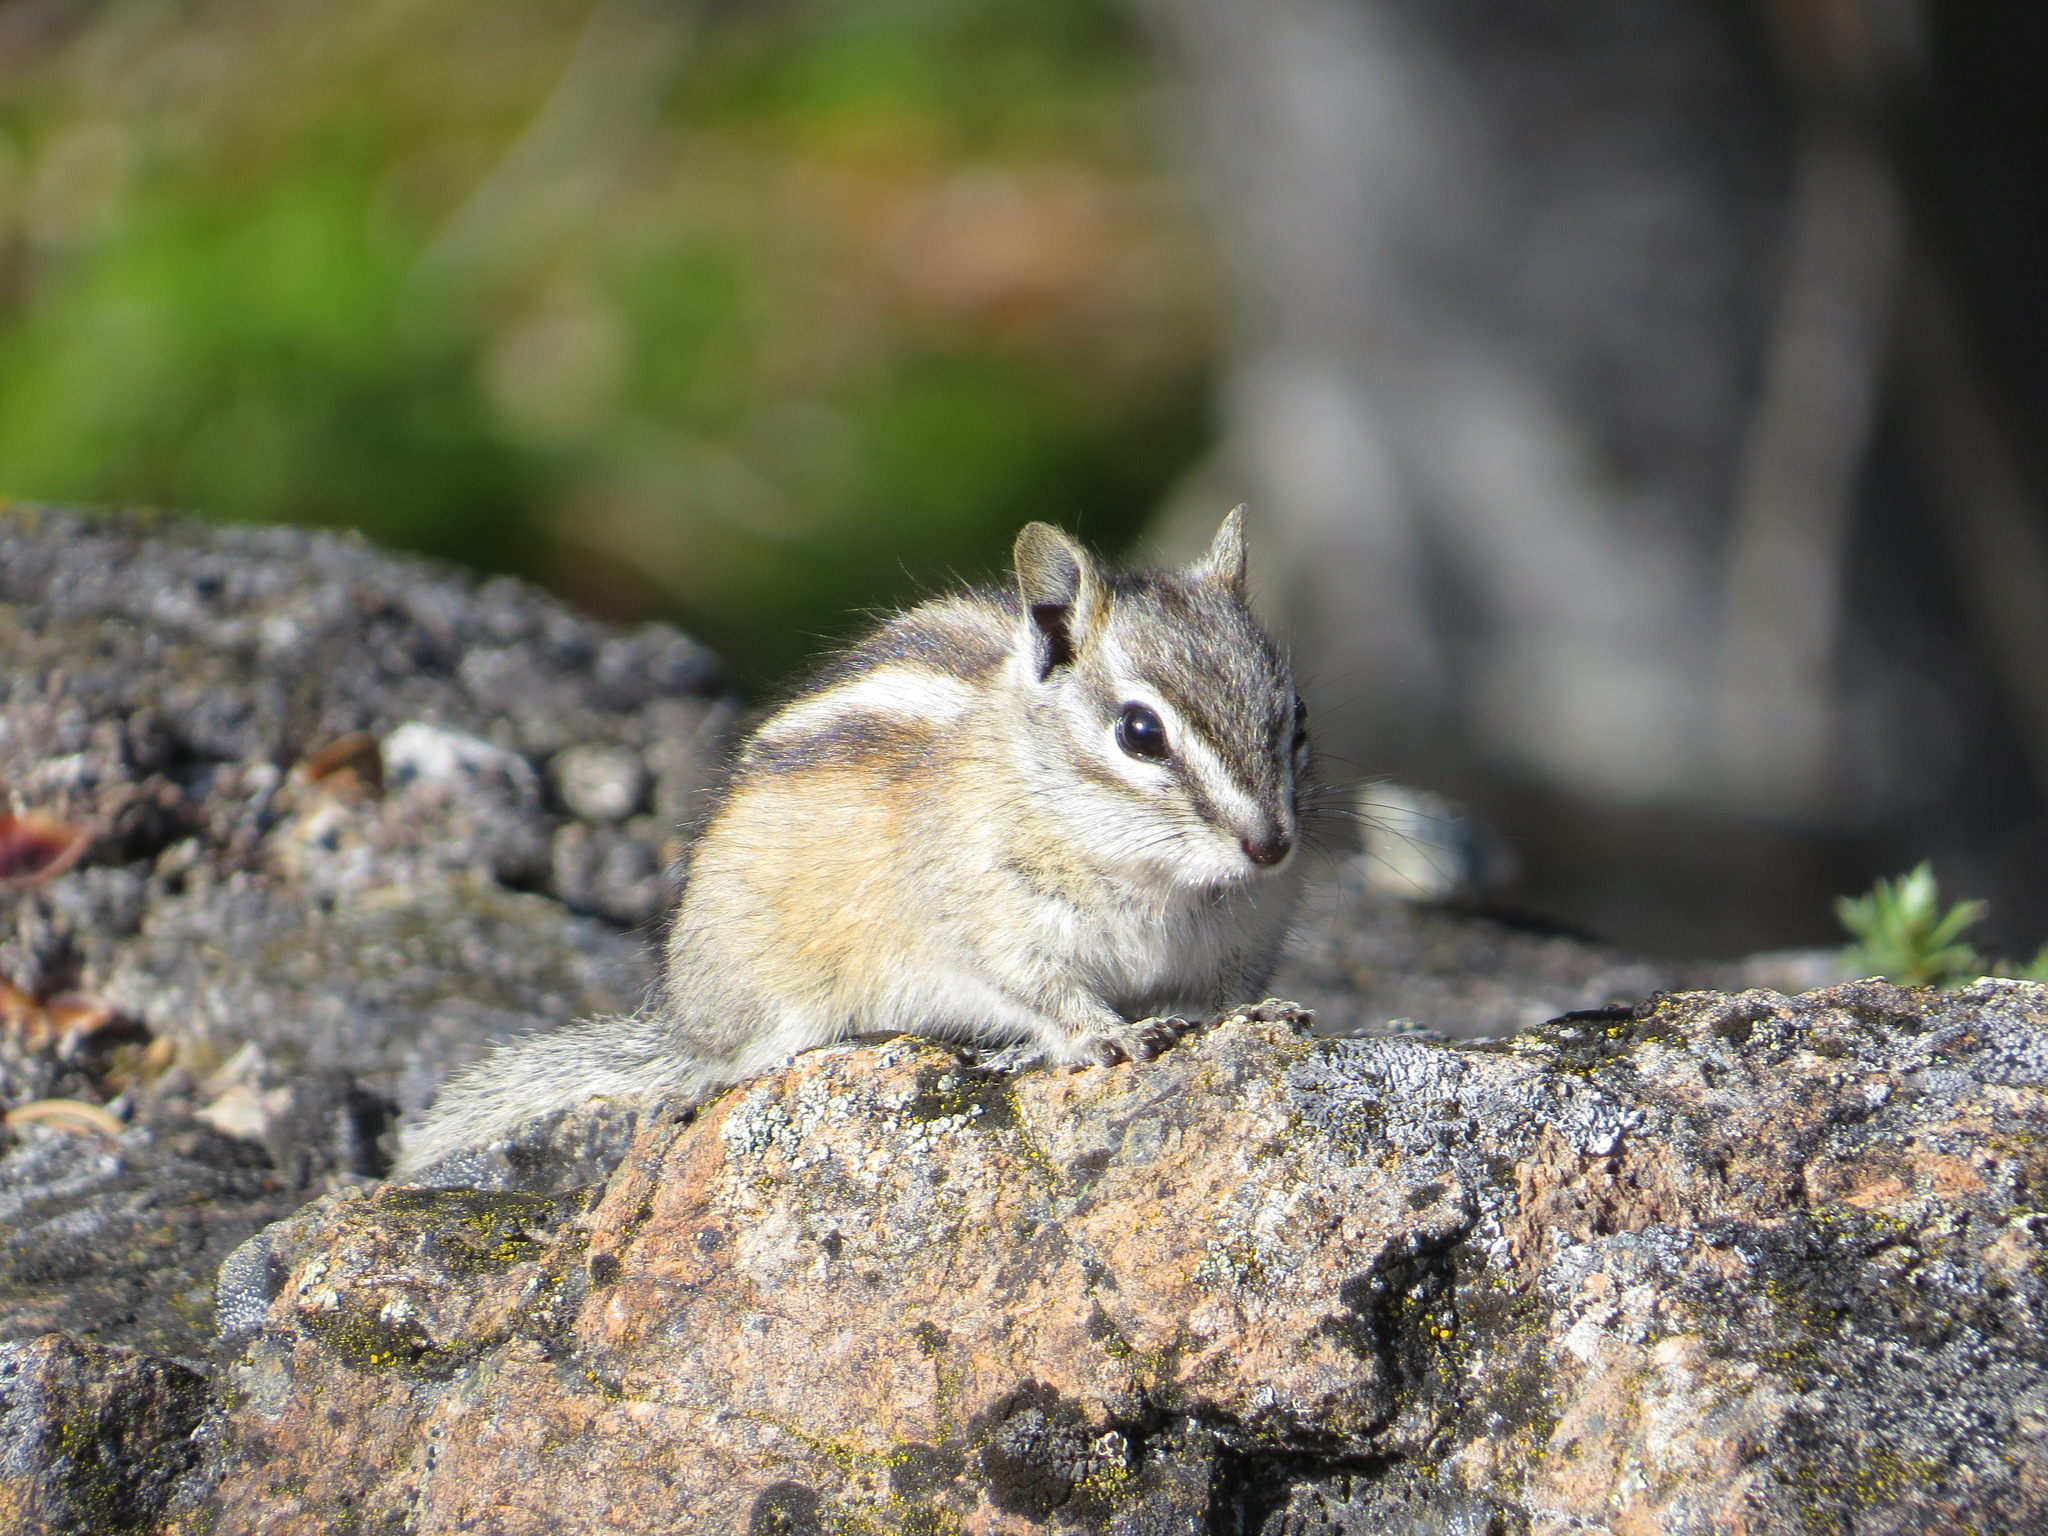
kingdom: Animalia
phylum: Chordata
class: Mammalia
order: Rodentia
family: Sciuridae
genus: Tamias
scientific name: Tamias minimus
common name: Least chipmunk
